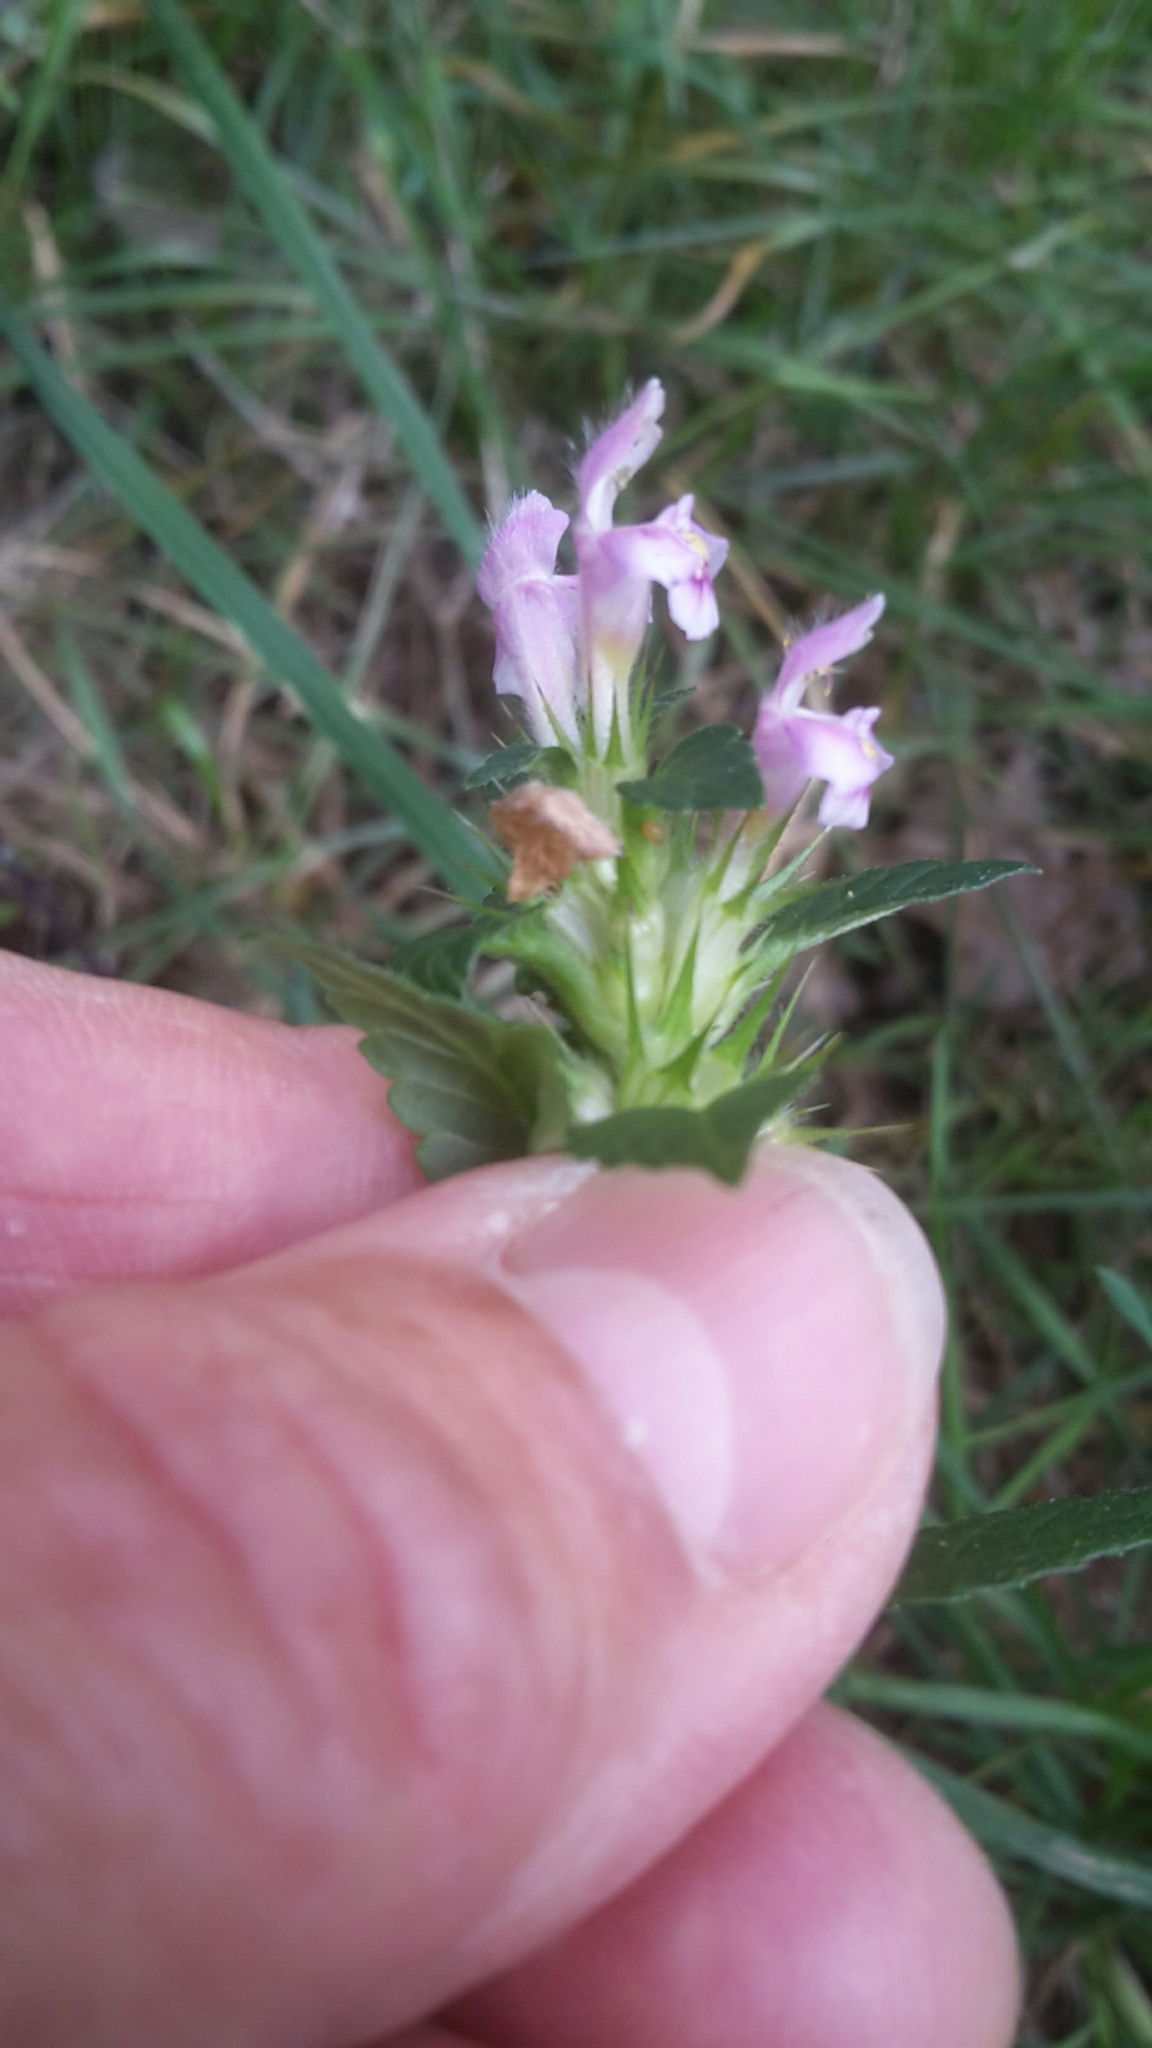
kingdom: Plantae
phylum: Tracheophyta
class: Magnoliopsida
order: Lamiales
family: Lamiaceae
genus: Galeopsis
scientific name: Galeopsis tetrahit
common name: Common hemp-nettle
